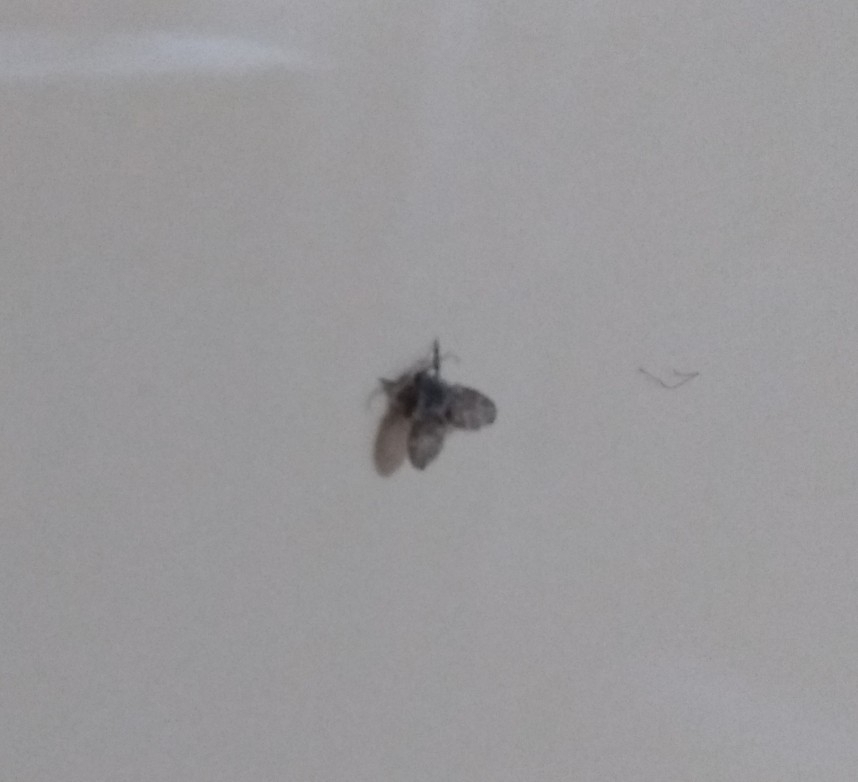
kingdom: Animalia
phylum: Arthropoda
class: Insecta
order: Diptera
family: Psychodidae
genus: Clogmia
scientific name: Clogmia albipunctatus
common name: White-spotted moth fly
